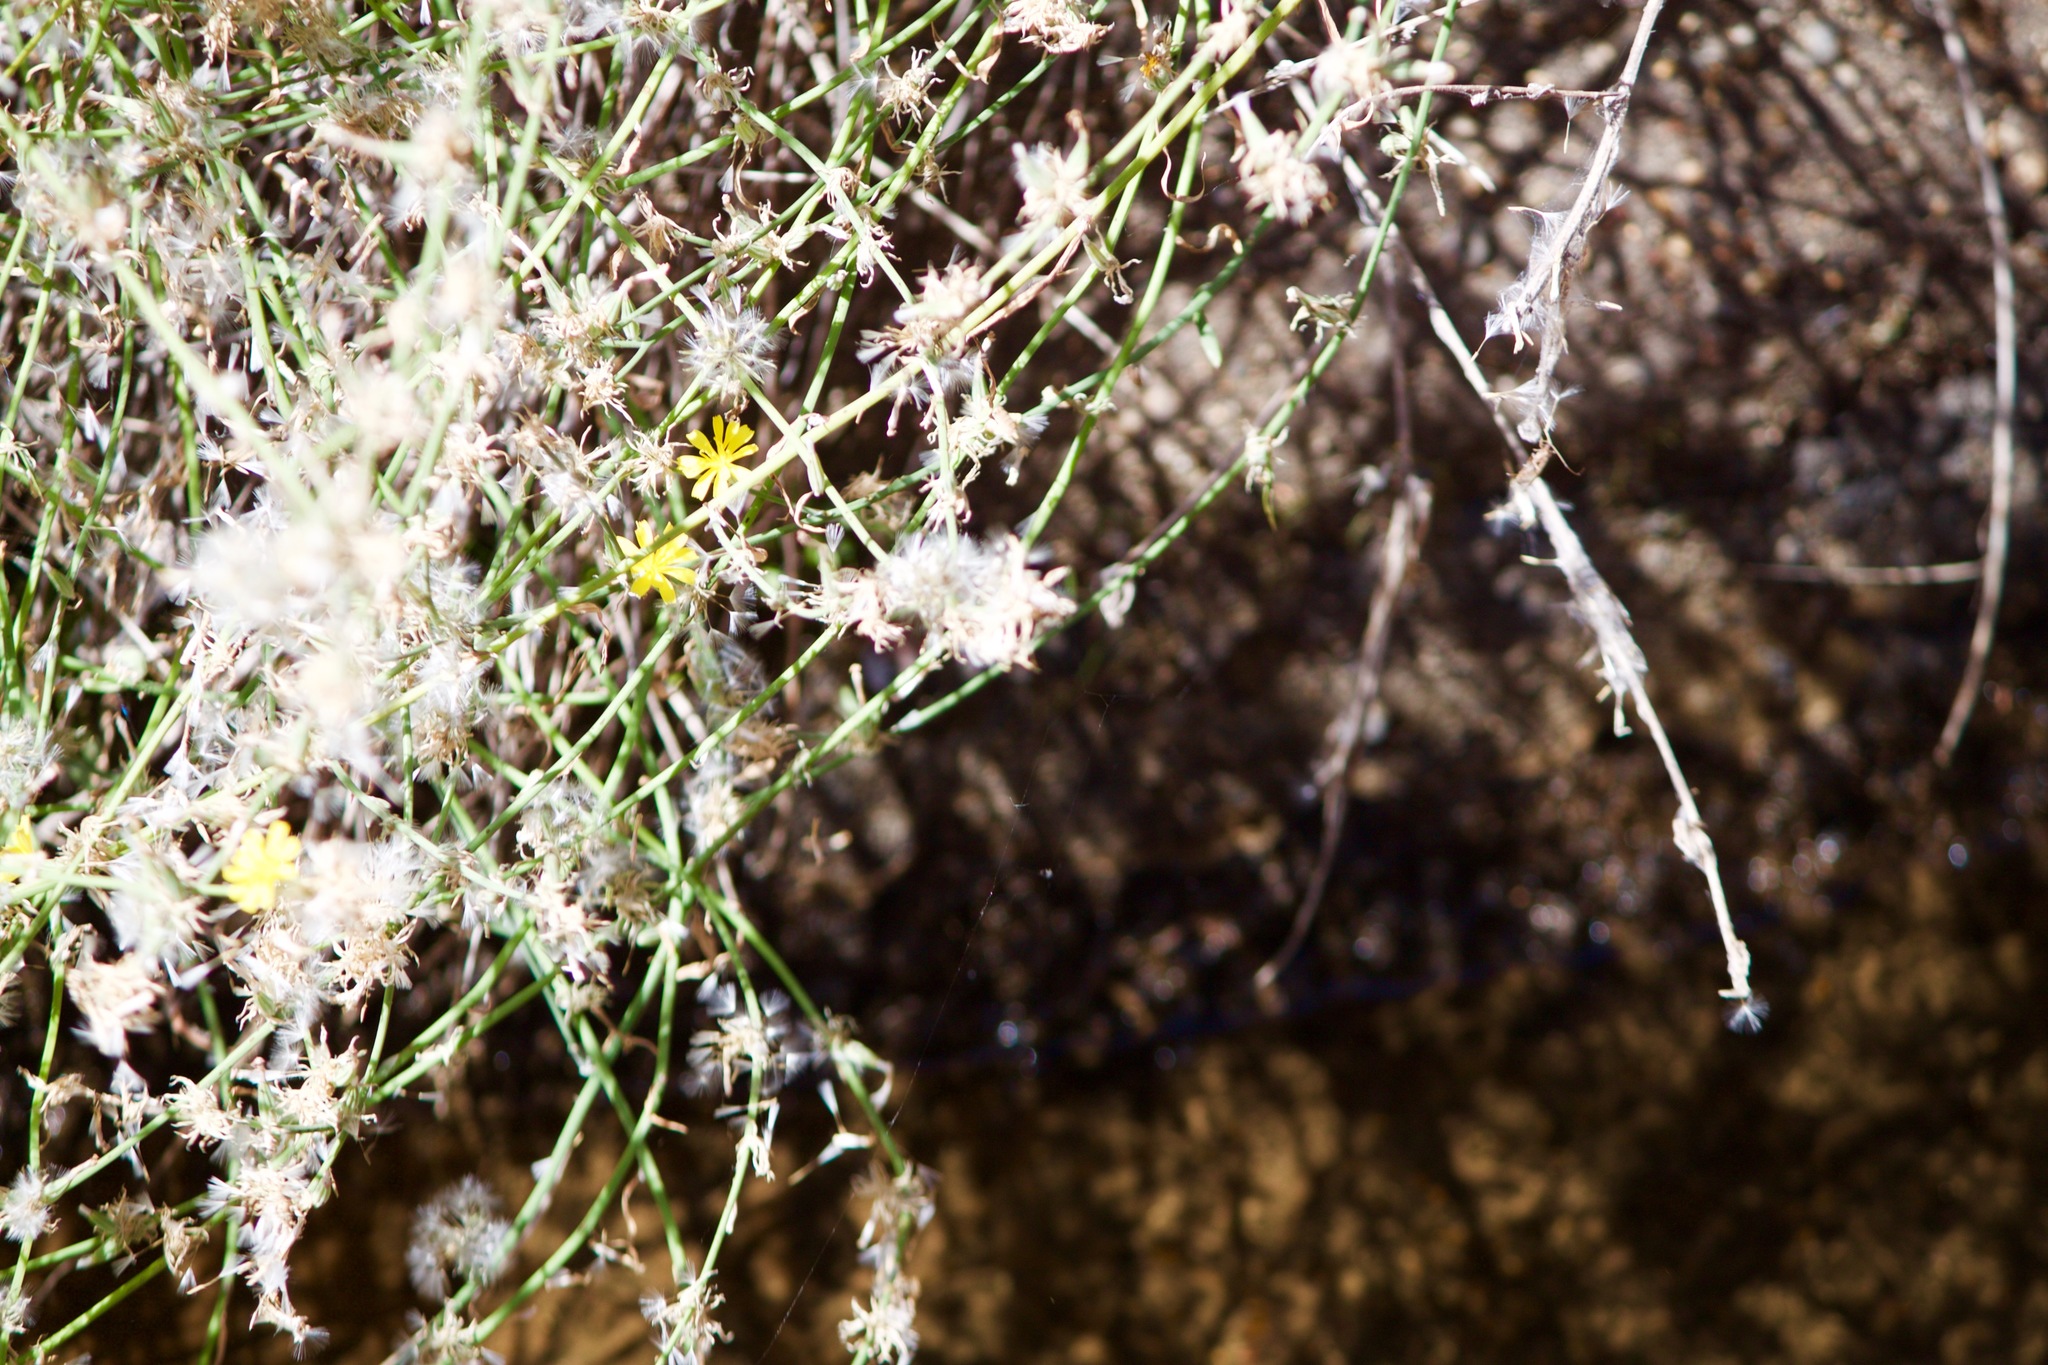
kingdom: Plantae
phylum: Tracheophyta
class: Magnoliopsida
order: Asterales
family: Asteraceae
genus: Lactuca
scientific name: Lactuca saligna
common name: Wild lettuce
